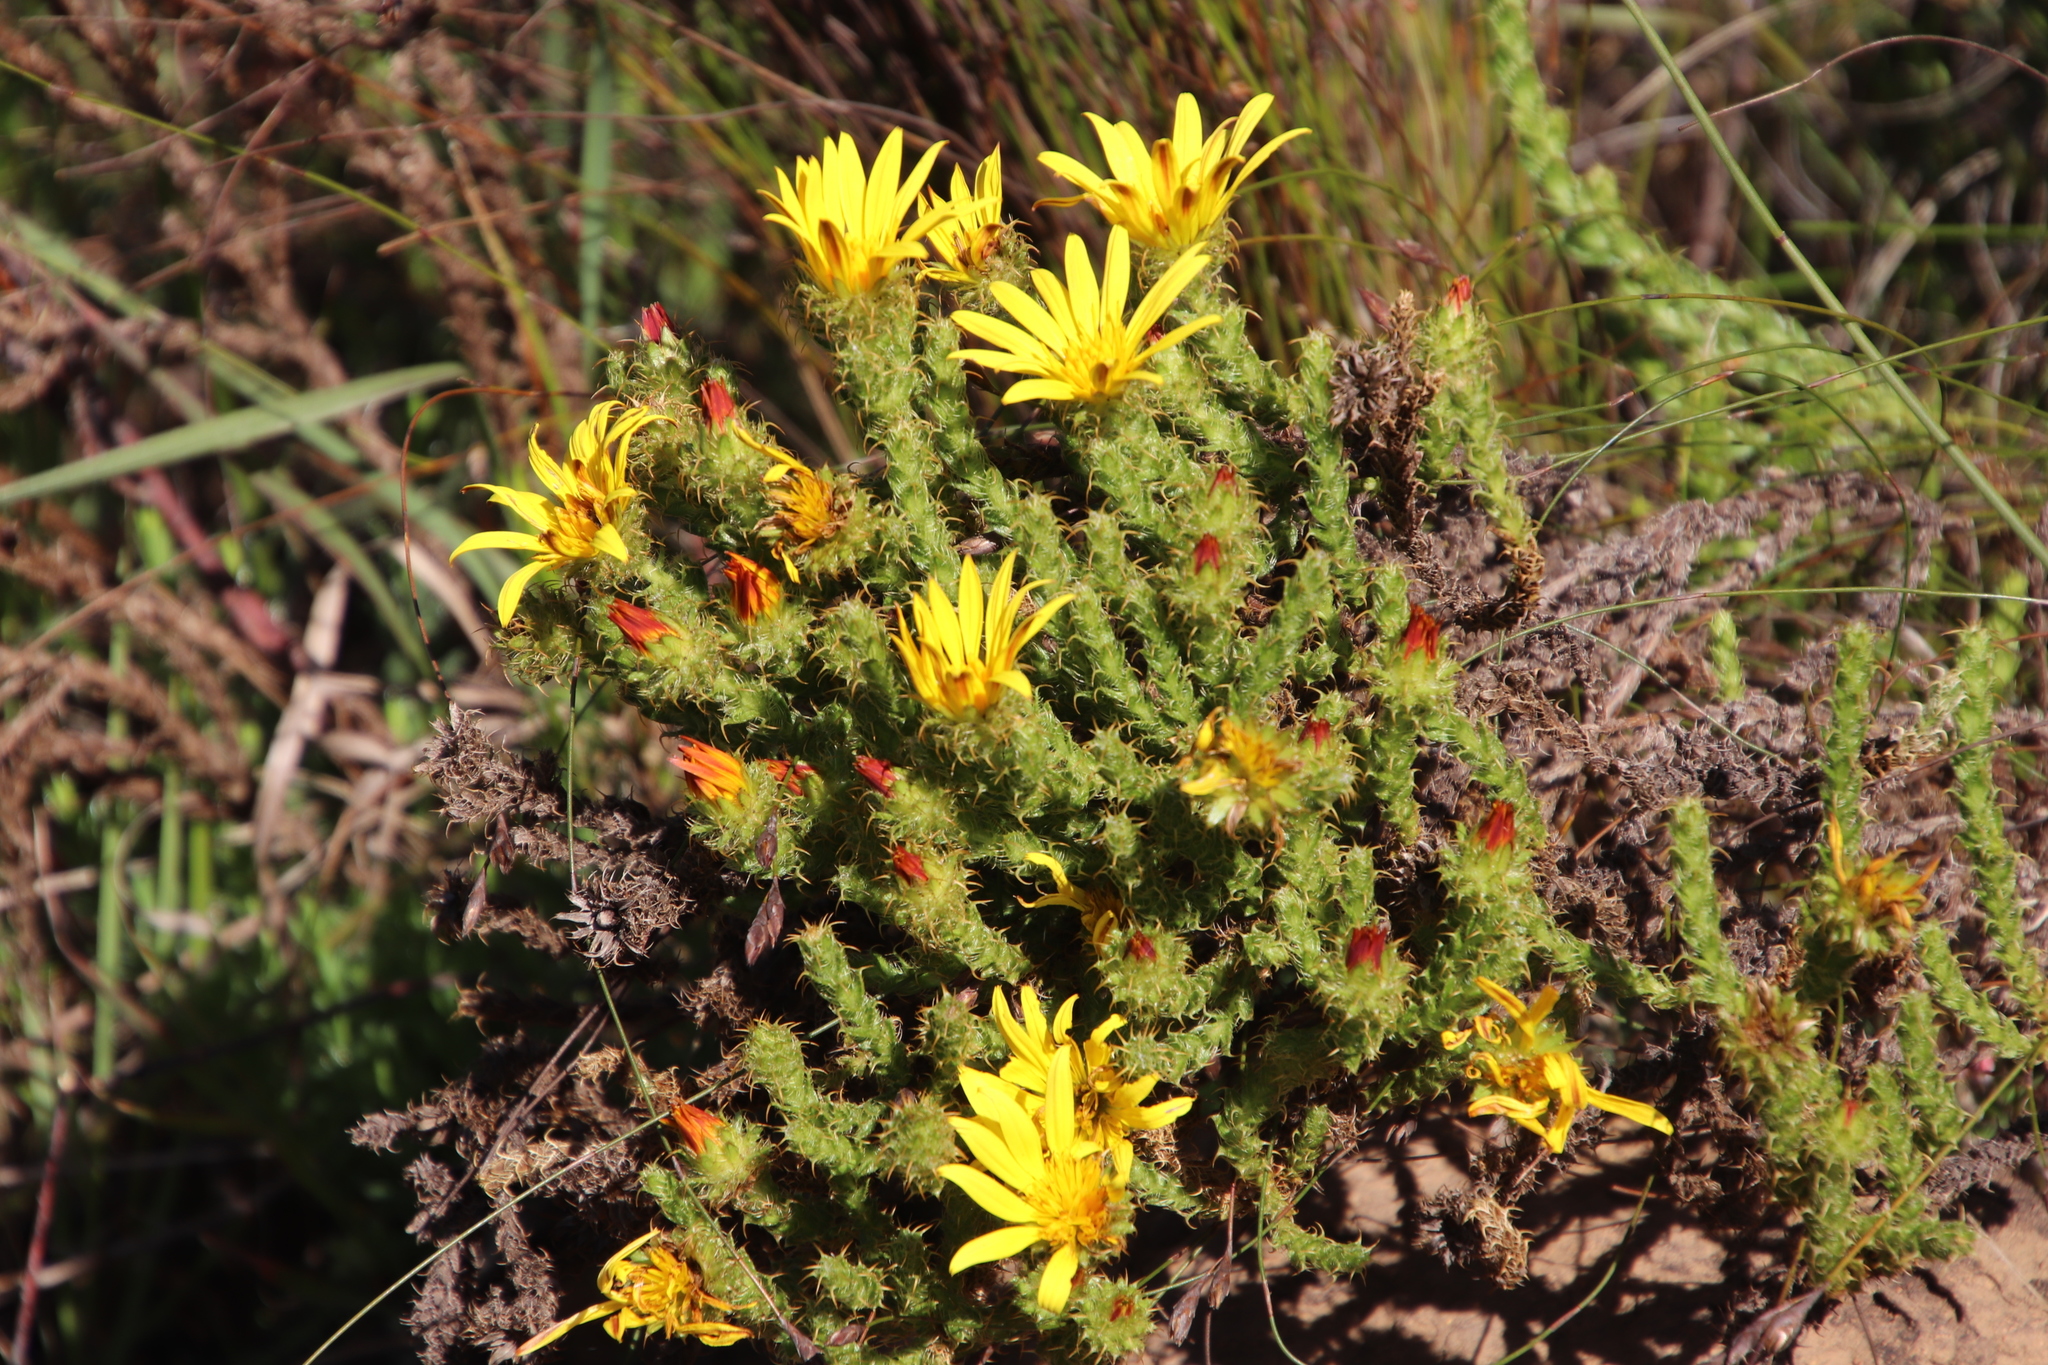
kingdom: Plantae
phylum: Tracheophyta
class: Magnoliopsida
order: Asterales
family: Asteraceae
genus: Cullumia
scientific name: Cullumia reticulata
